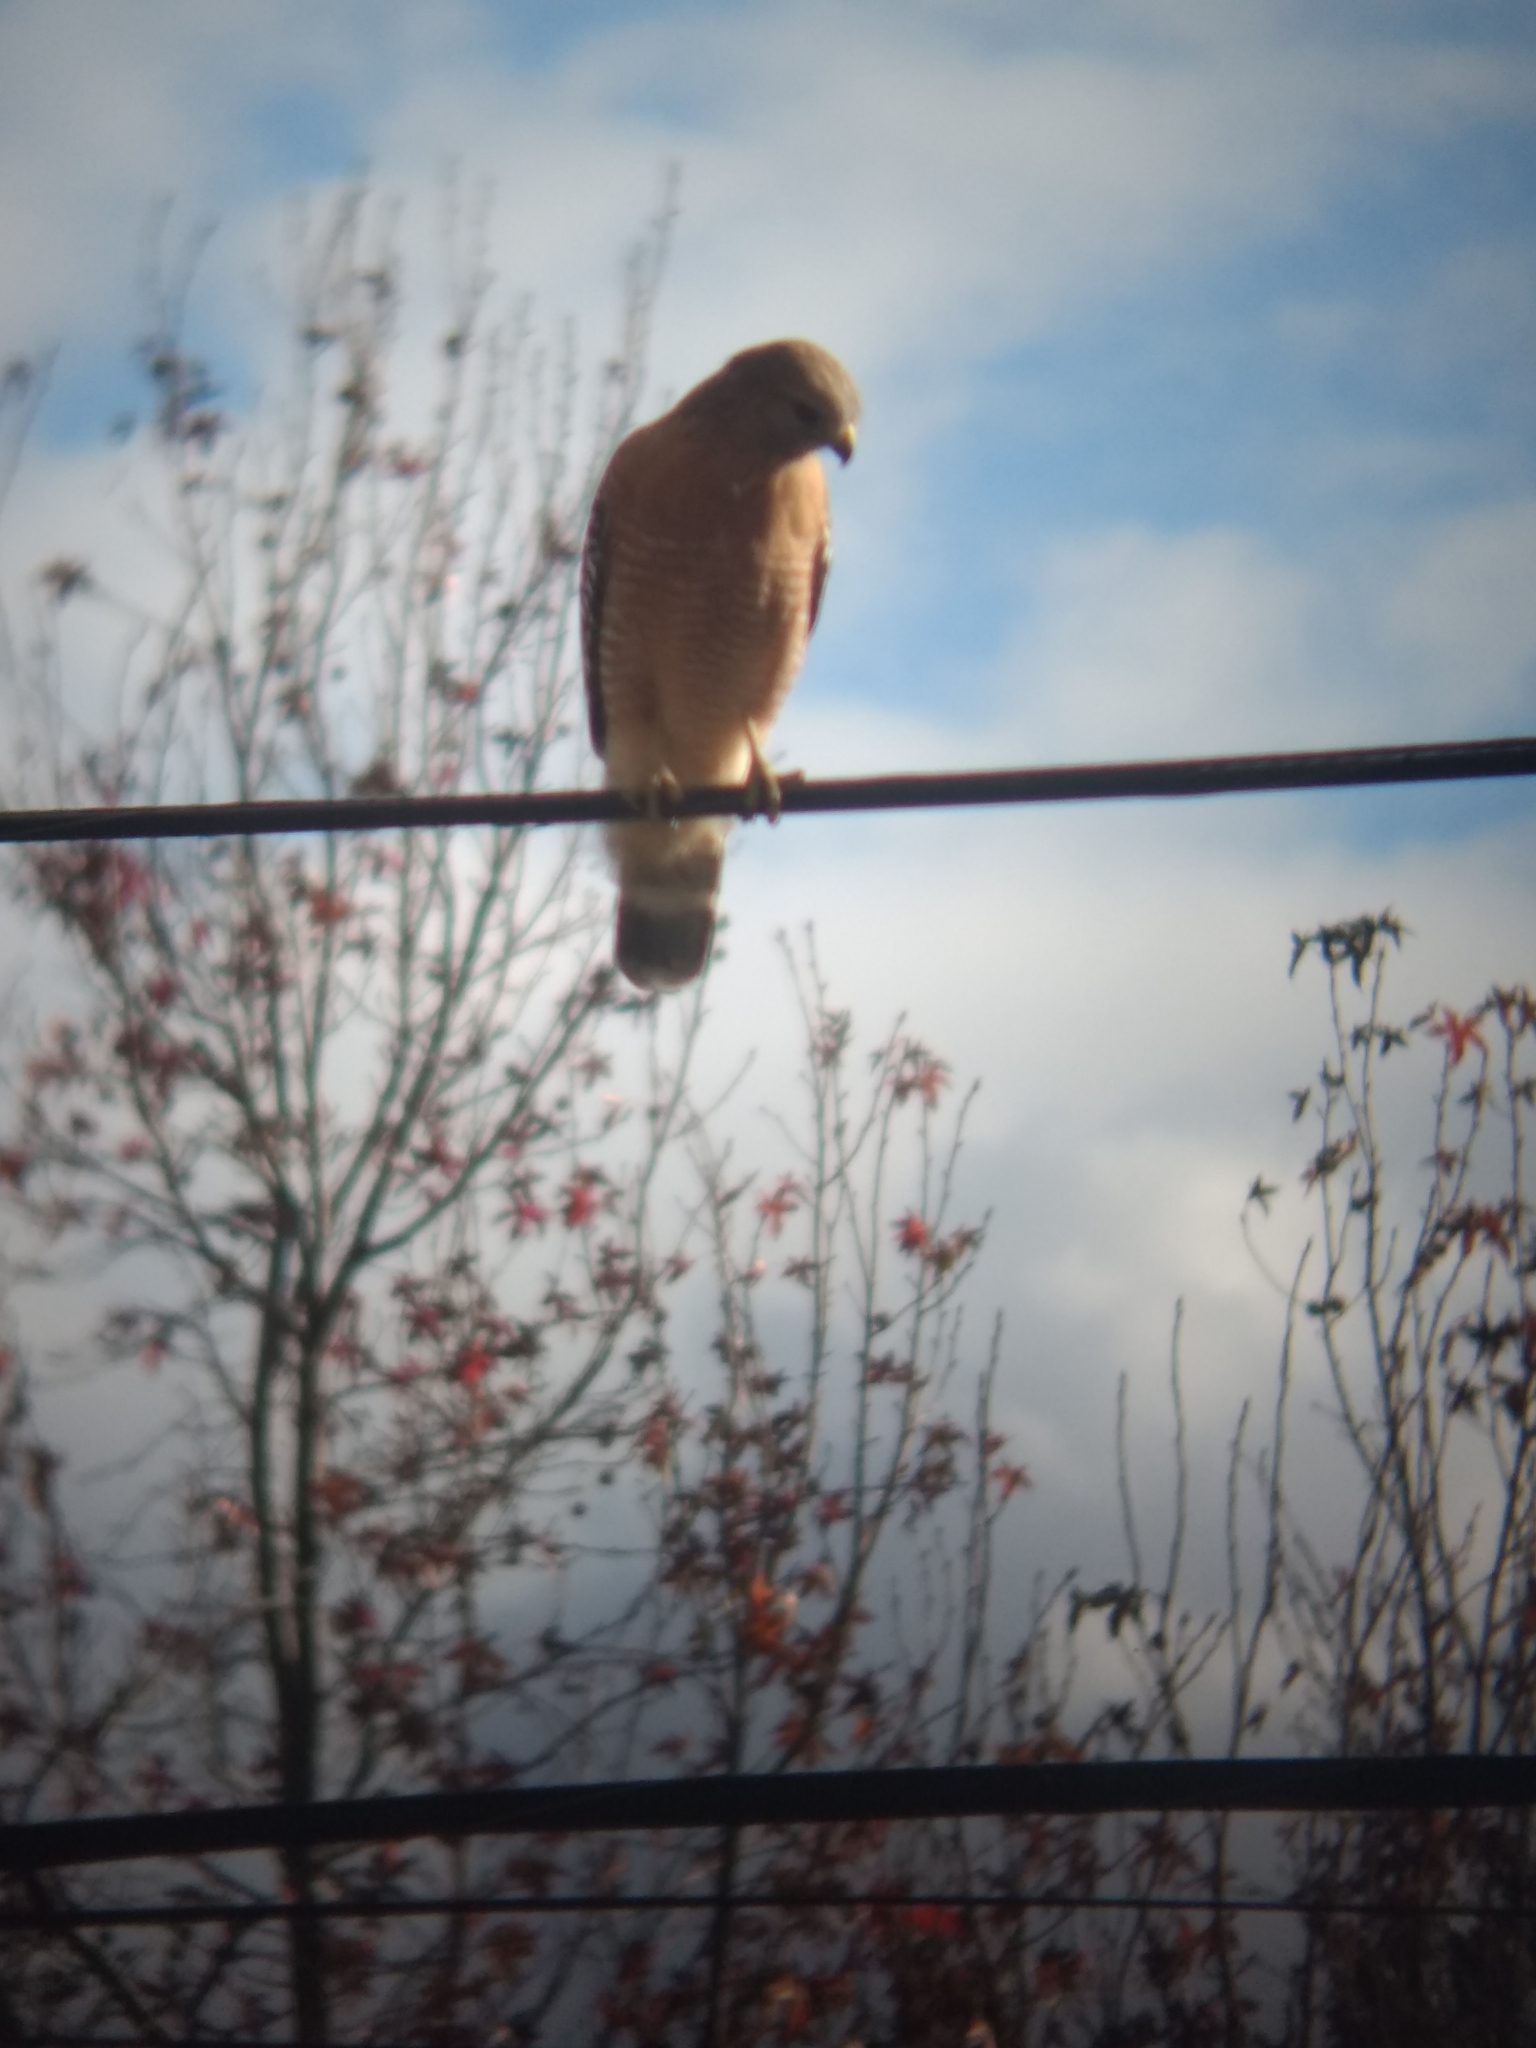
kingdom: Animalia
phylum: Chordata
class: Aves
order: Accipitriformes
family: Accipitridae
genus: Buteo
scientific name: Buteo lineatus
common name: Red-shouldered hawk
